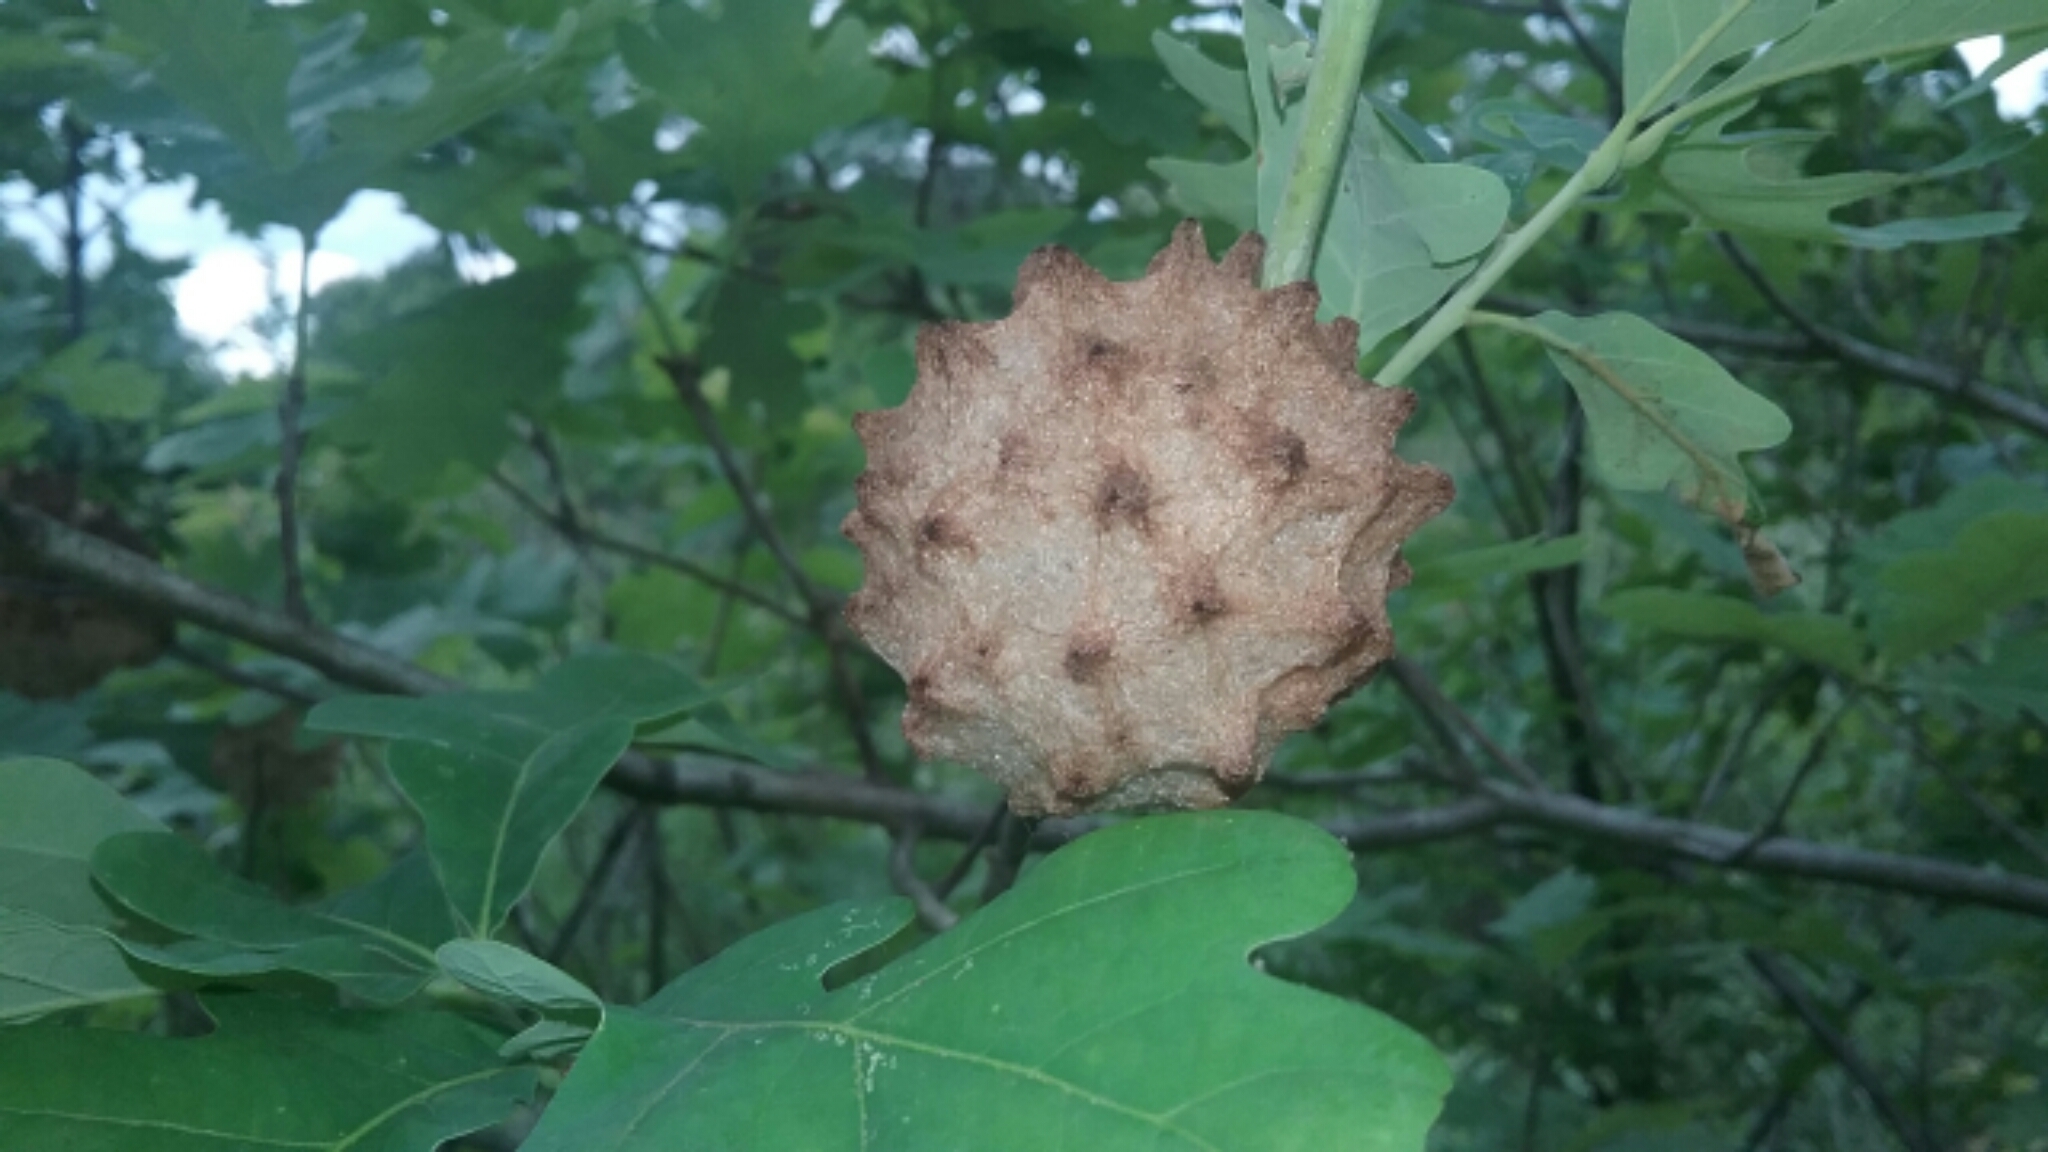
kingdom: Animalia
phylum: Arthropoda
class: Insecta
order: Hymenoptera
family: Cynipidae
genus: Callirhytis
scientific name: Callirhytis
